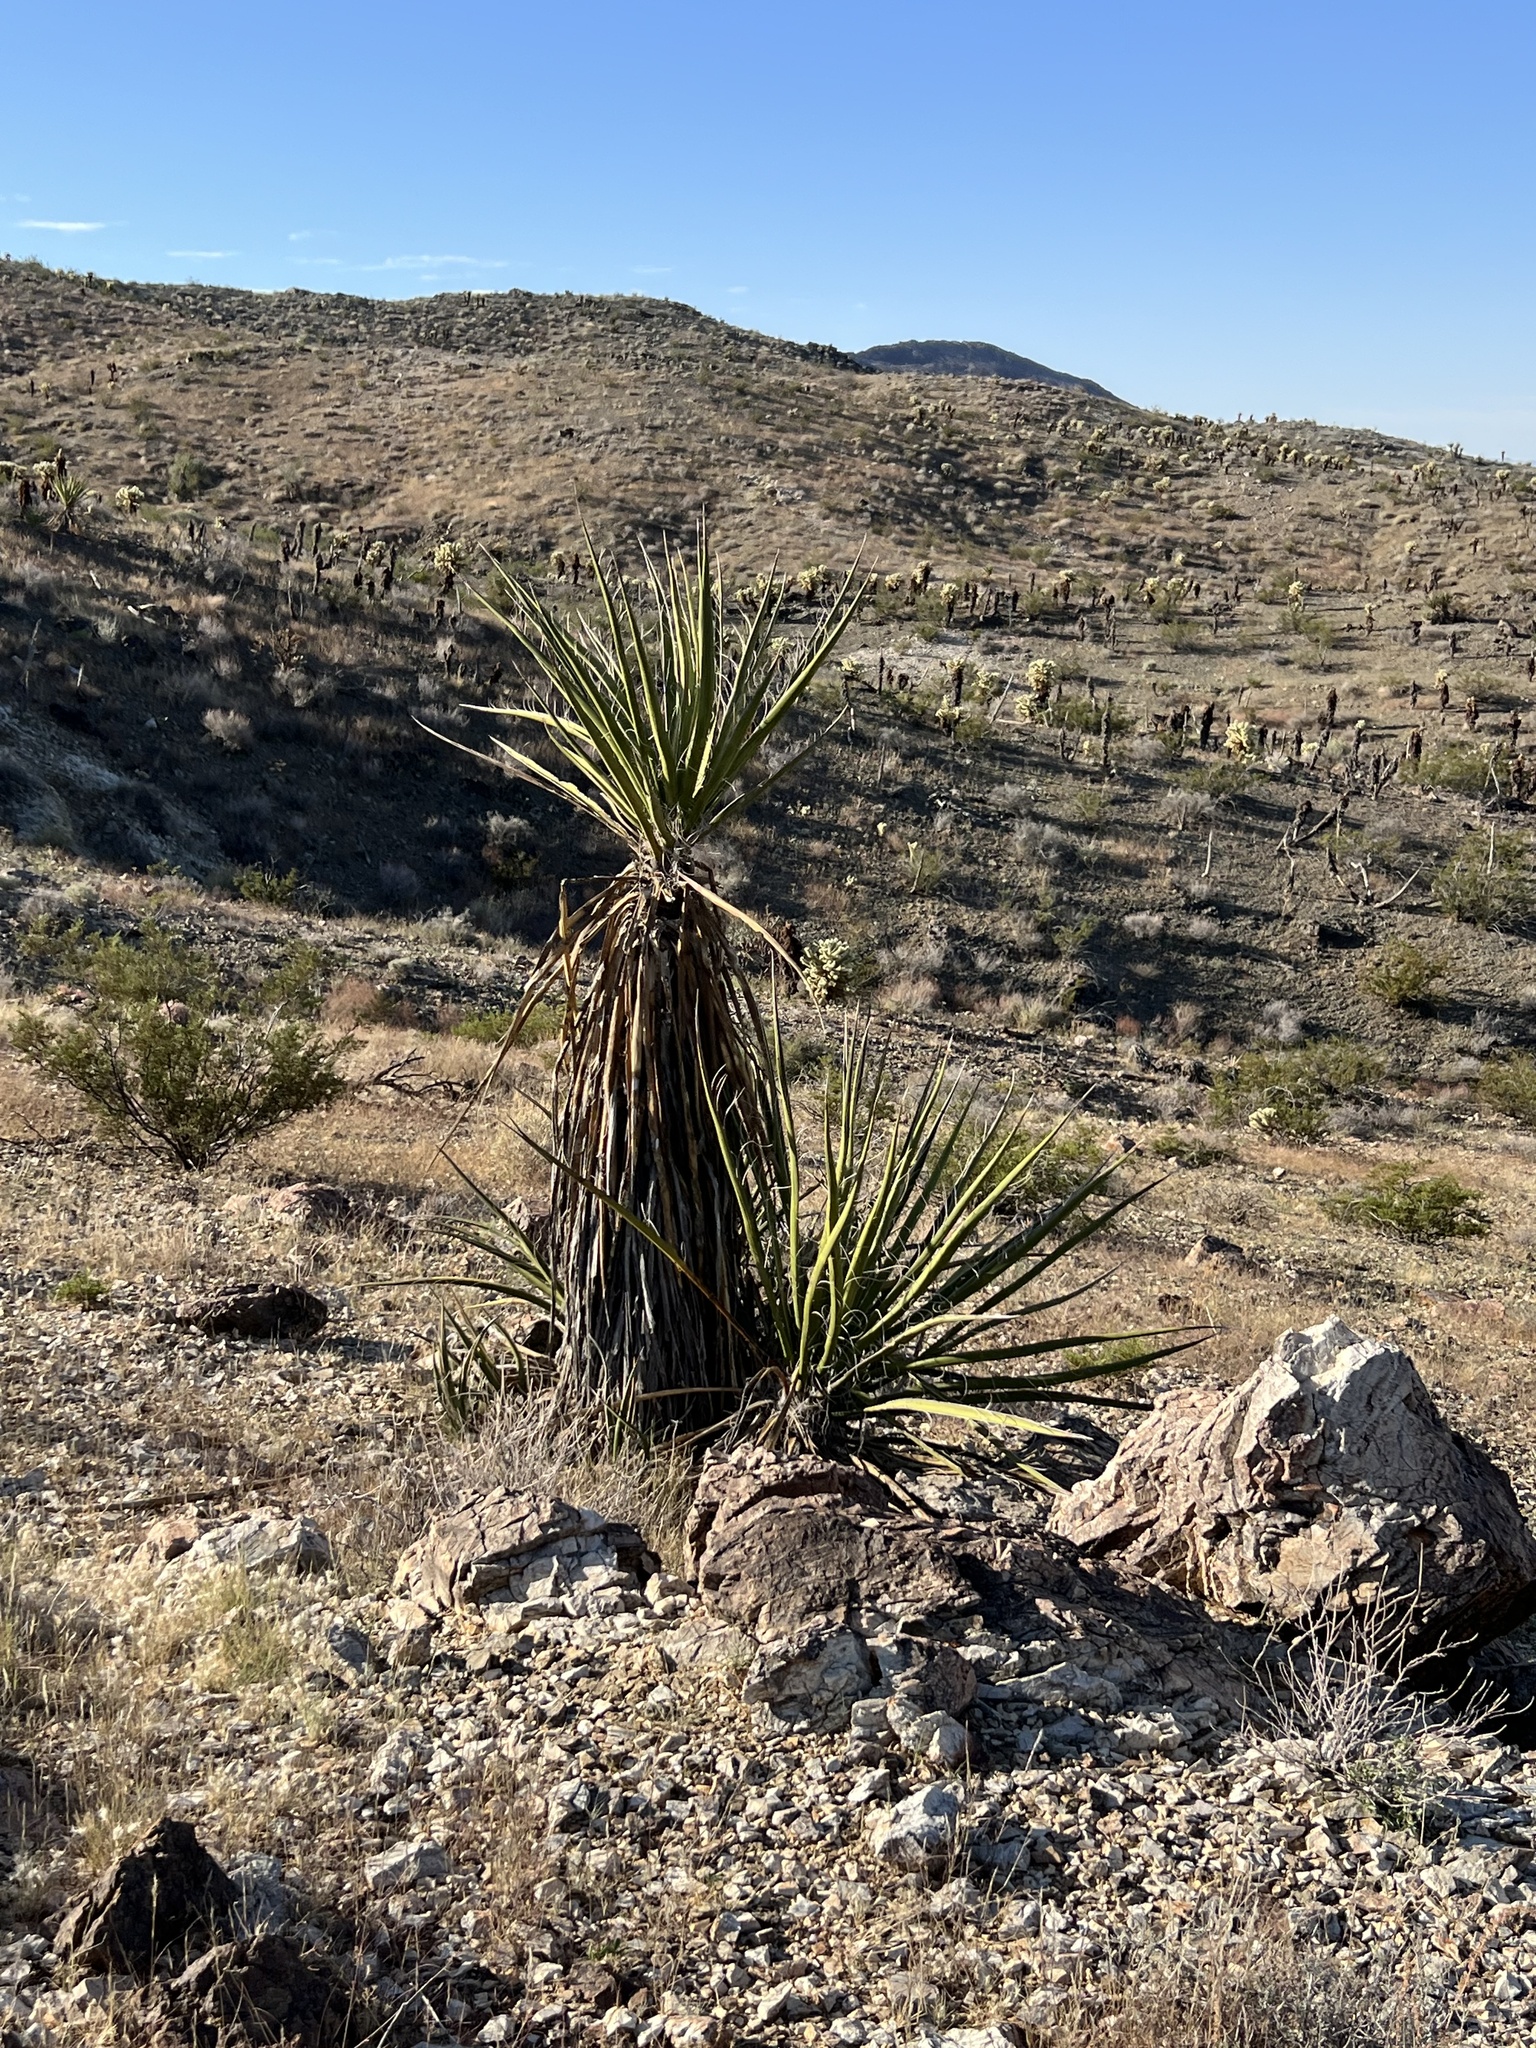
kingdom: Plantae
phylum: Tracheophyta
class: Liliopsida
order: Asparagales
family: Asparagaceae
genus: Yucca
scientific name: Yucca schidigera
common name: Mojave yucca
